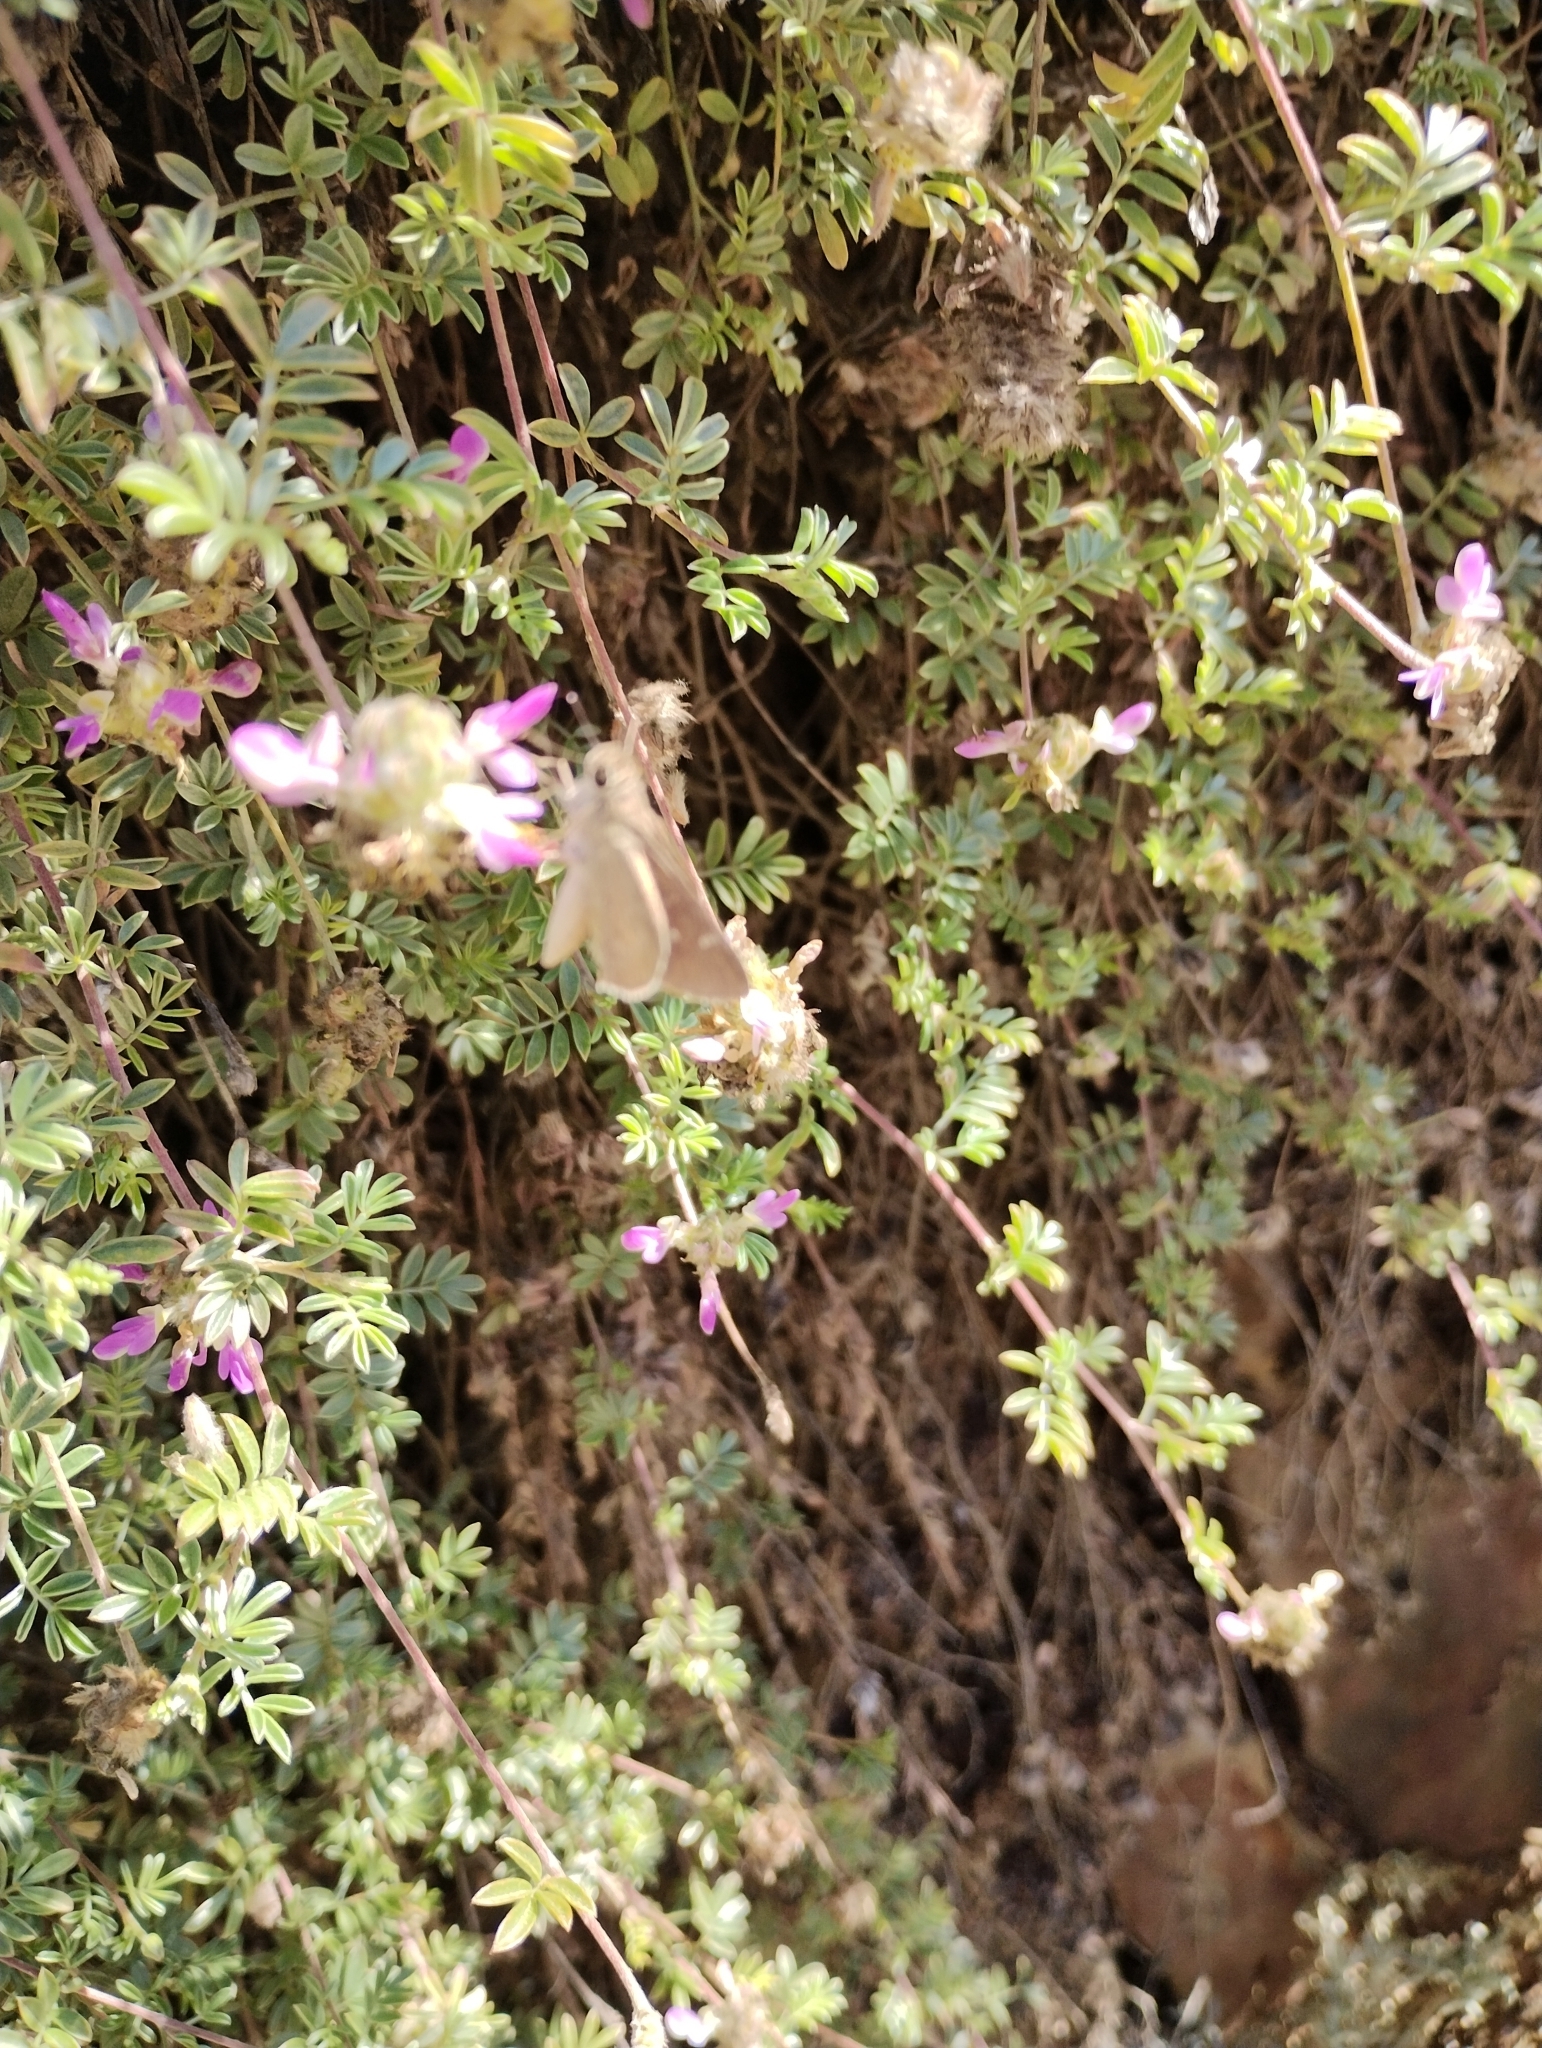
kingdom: Animalia
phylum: Arthropoda
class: Insecta
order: Lepidoptera
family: Hesperiidae
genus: Lerodea
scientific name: Lerodea eufala
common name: Eufala skipper
